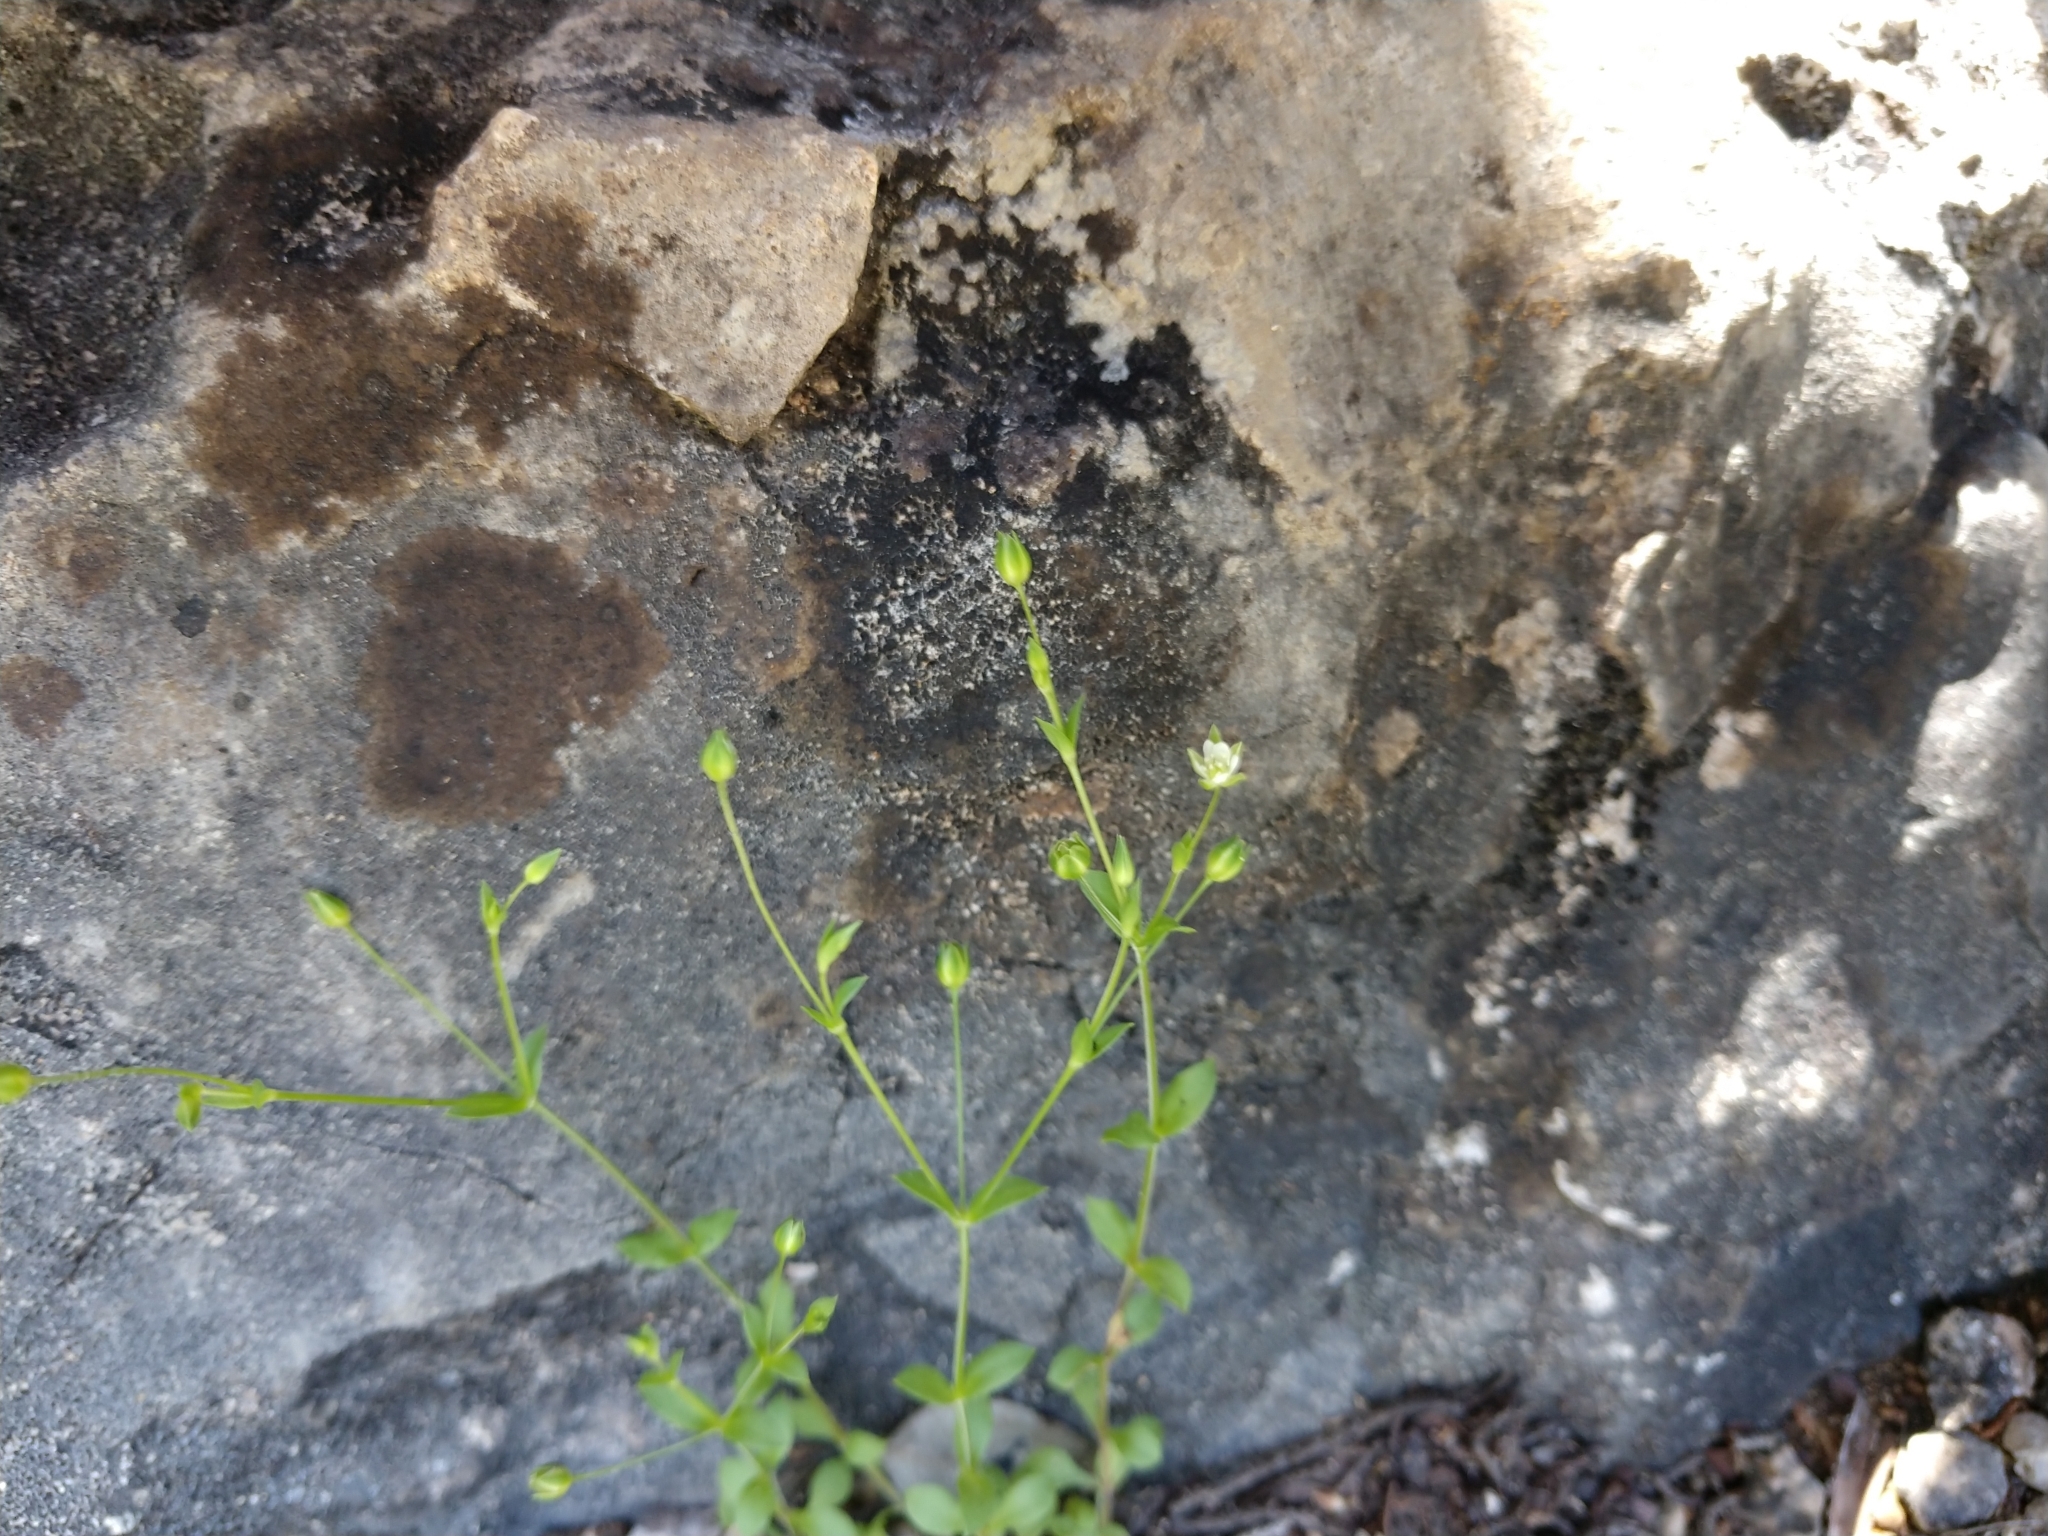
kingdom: Plantae
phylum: Tracheophyta
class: Magnoliopsida
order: Caryophyllales
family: Caryophyllaceae
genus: Arenaria
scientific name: Arenaria benthamii
